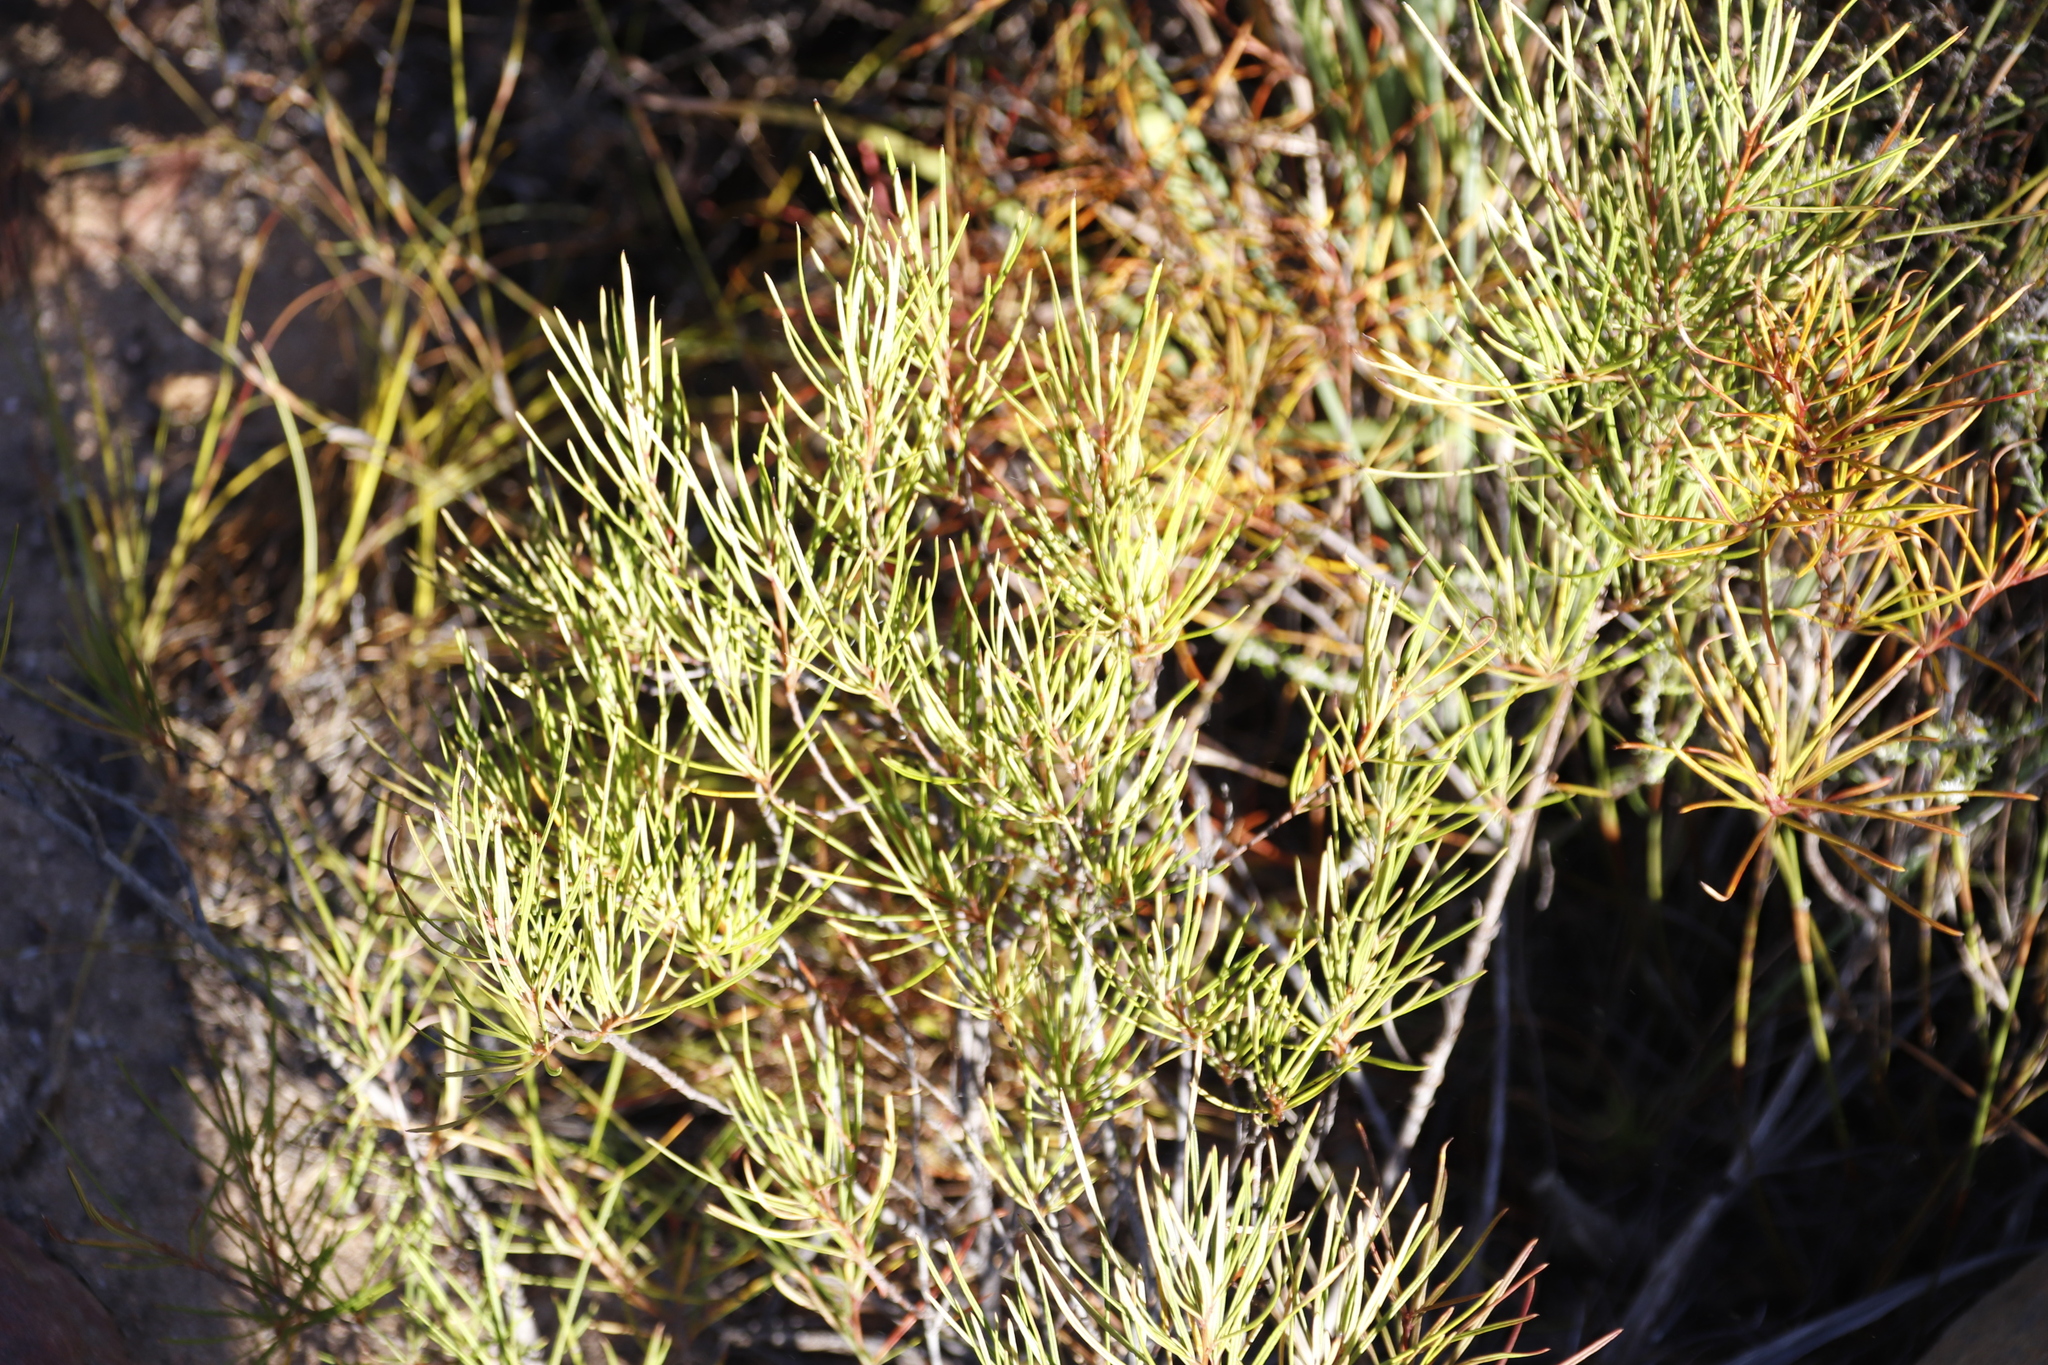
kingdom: Plantae
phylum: Tracheophyta
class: Magnoliopsida
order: Sapindales
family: Anacardiaceae
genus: Searsia
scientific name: Searsia rosmarinifolia
